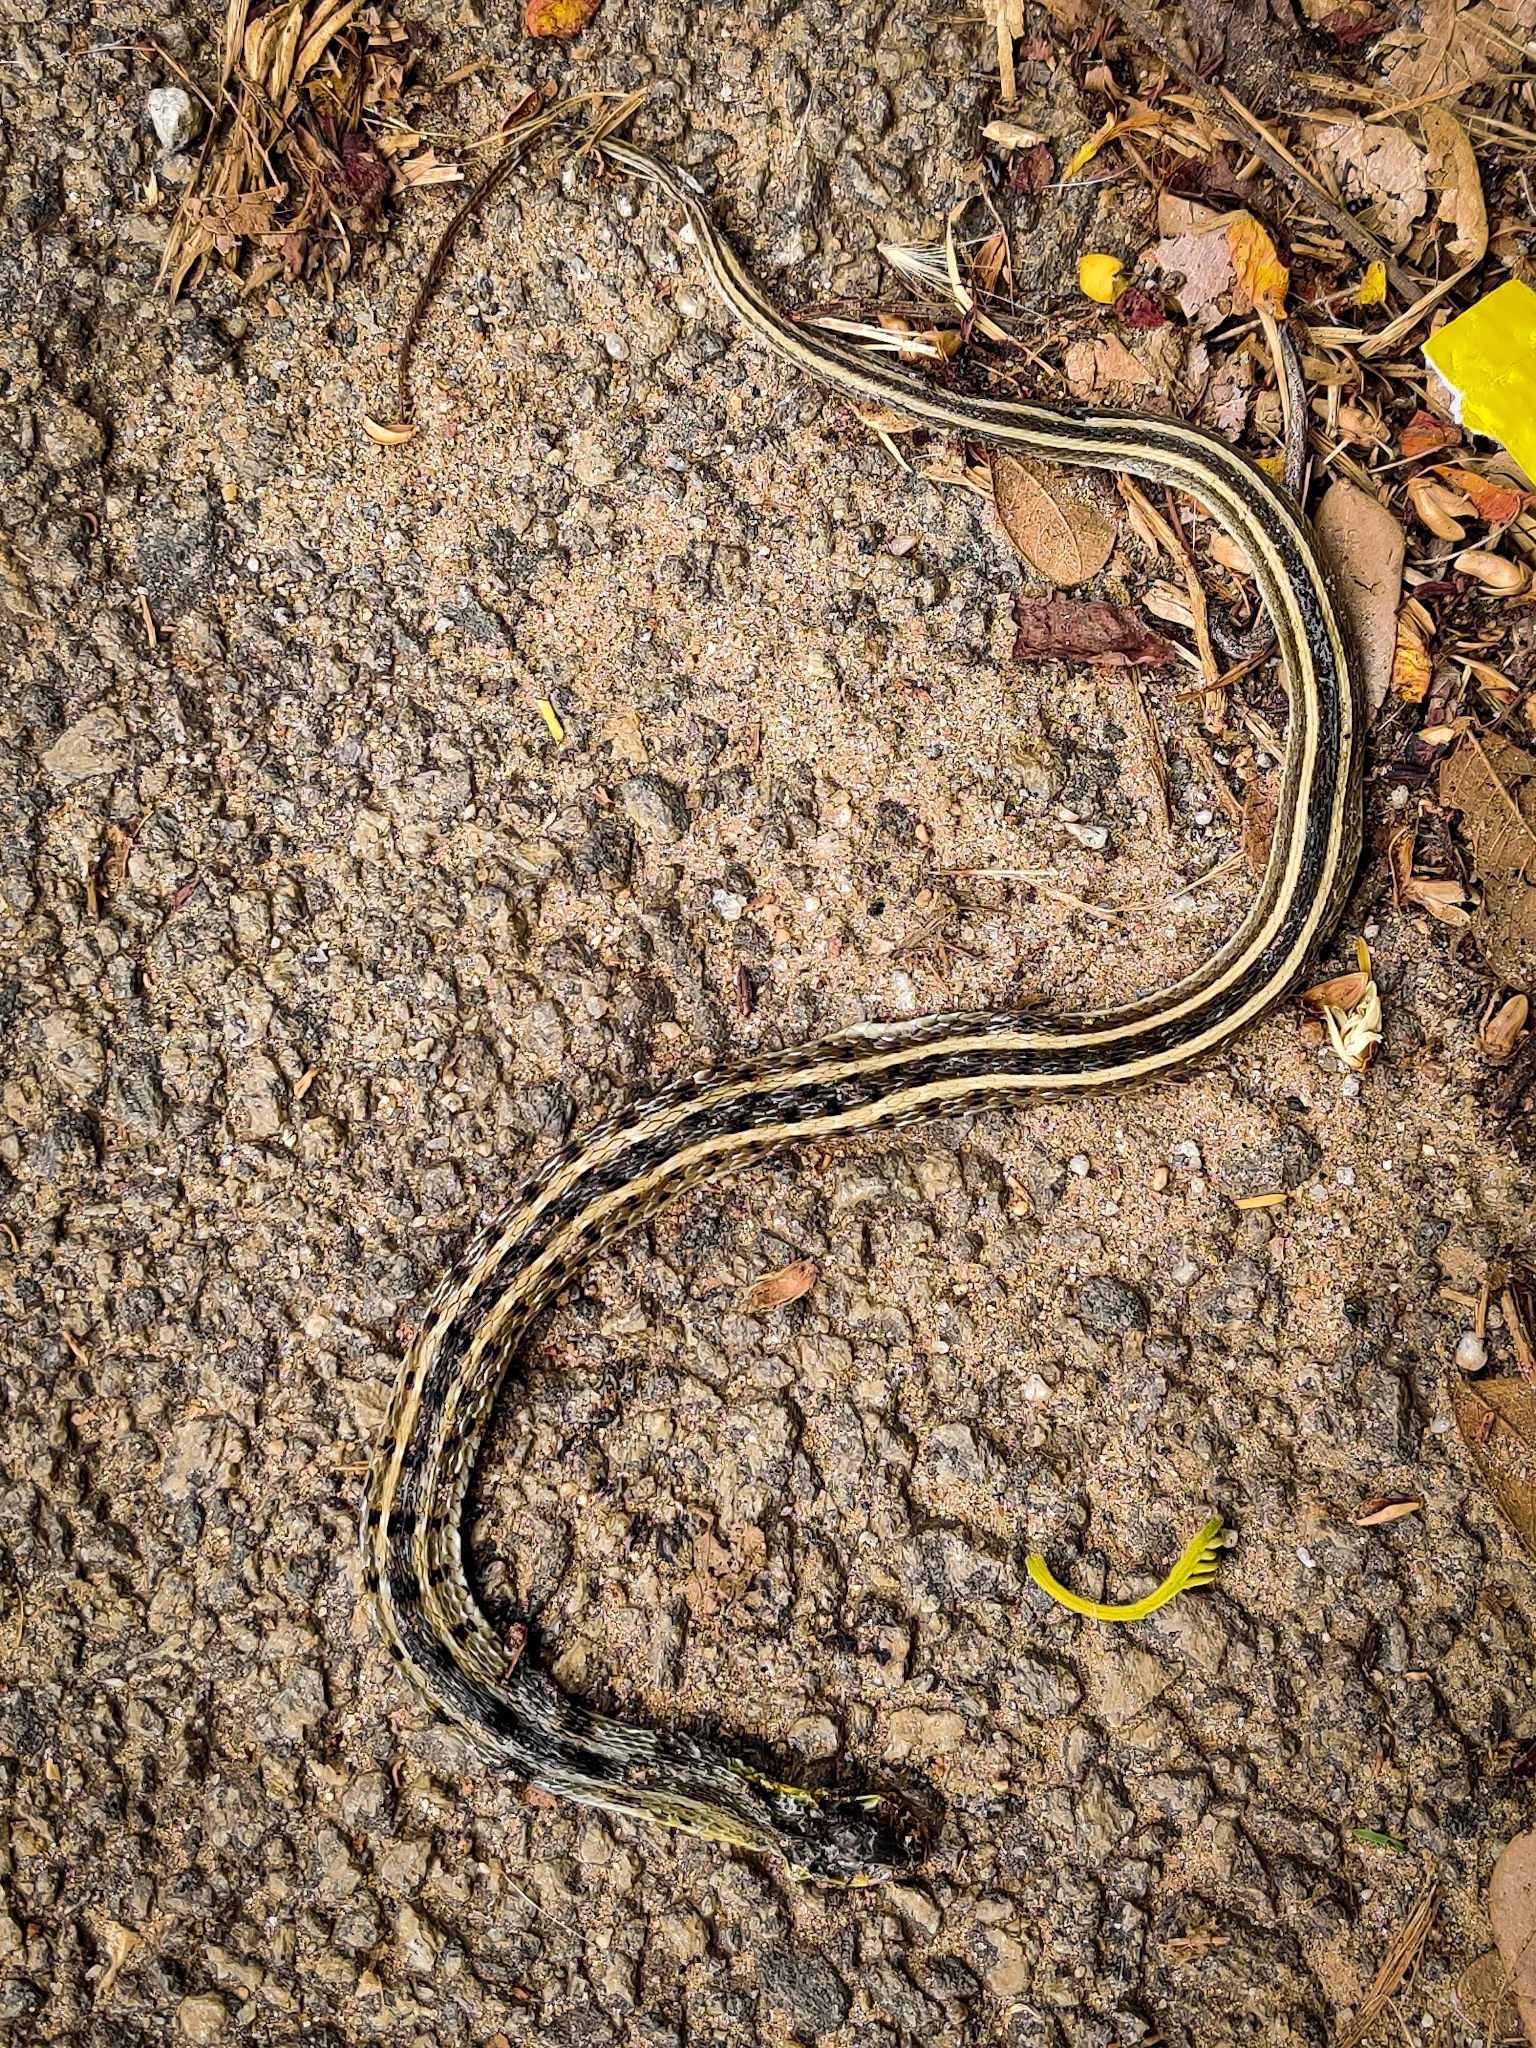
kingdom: Animalia
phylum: Chordata
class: Squamata
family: Colubridae
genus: Amphiesma
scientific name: Amphiesma stolatum
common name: Buff striped keelback
